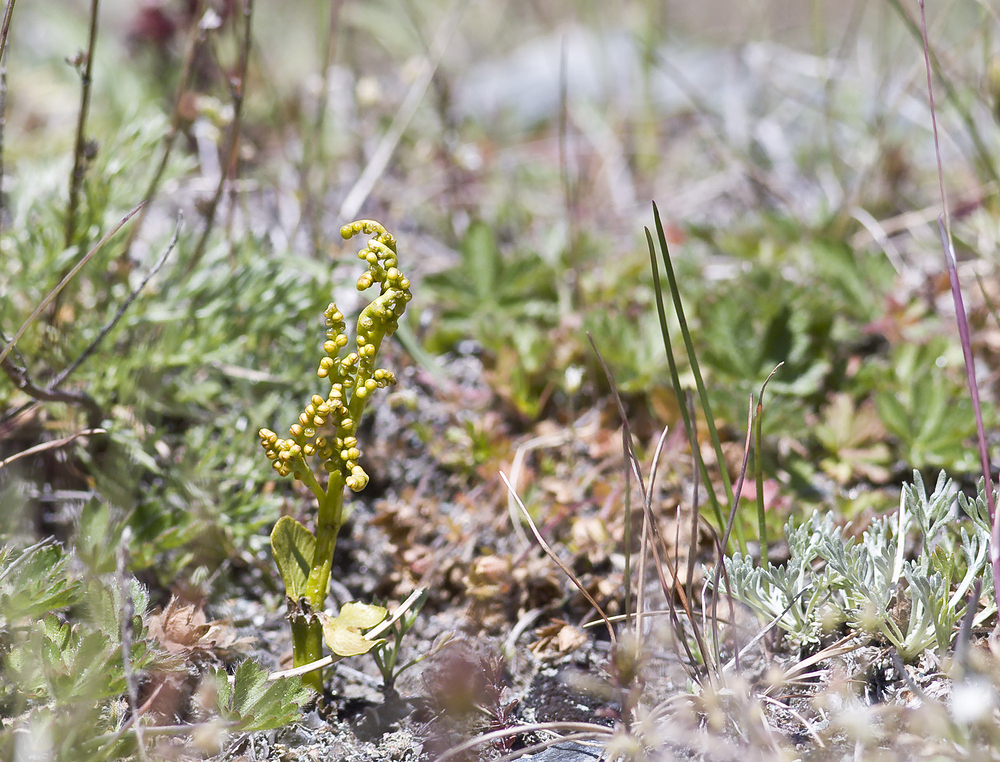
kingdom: Plantae
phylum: Tracheophyta
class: Polypodiopsida
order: Ophioglossales
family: Ophioglossaceae
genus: Botrychium
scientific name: Botrychium lunaria
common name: Moonwort
